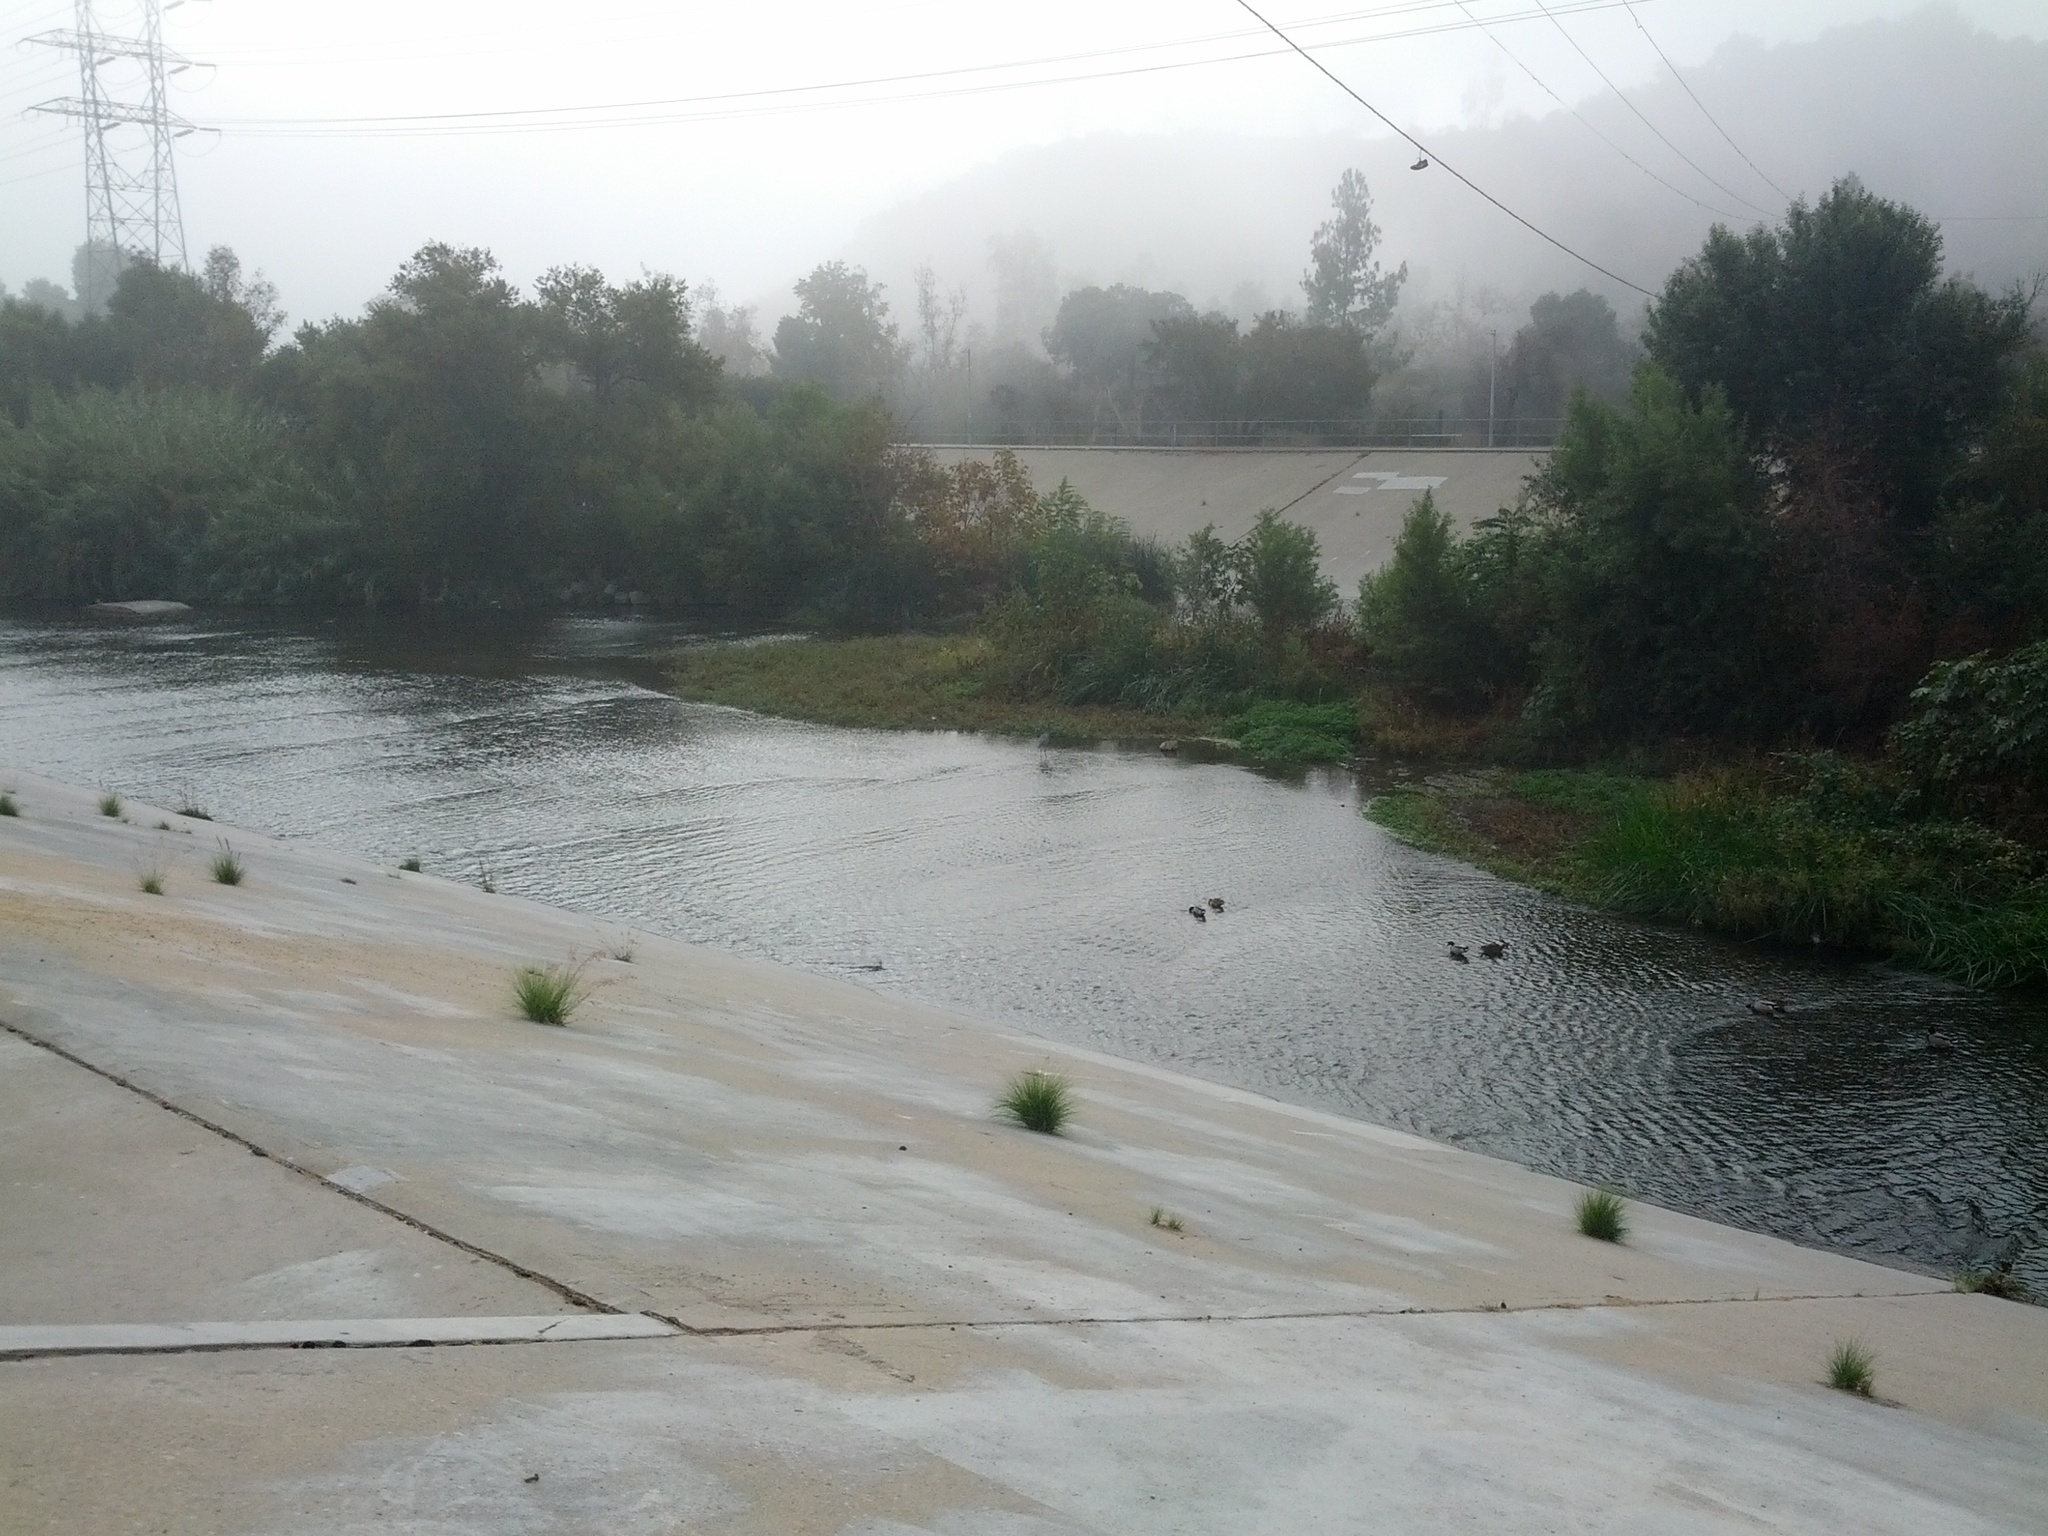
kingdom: Animalia
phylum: Chordata
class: Aves
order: Pelecaniformes
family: Ardeidae
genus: Ardea
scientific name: Ardea herodias
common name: Great blue heron
